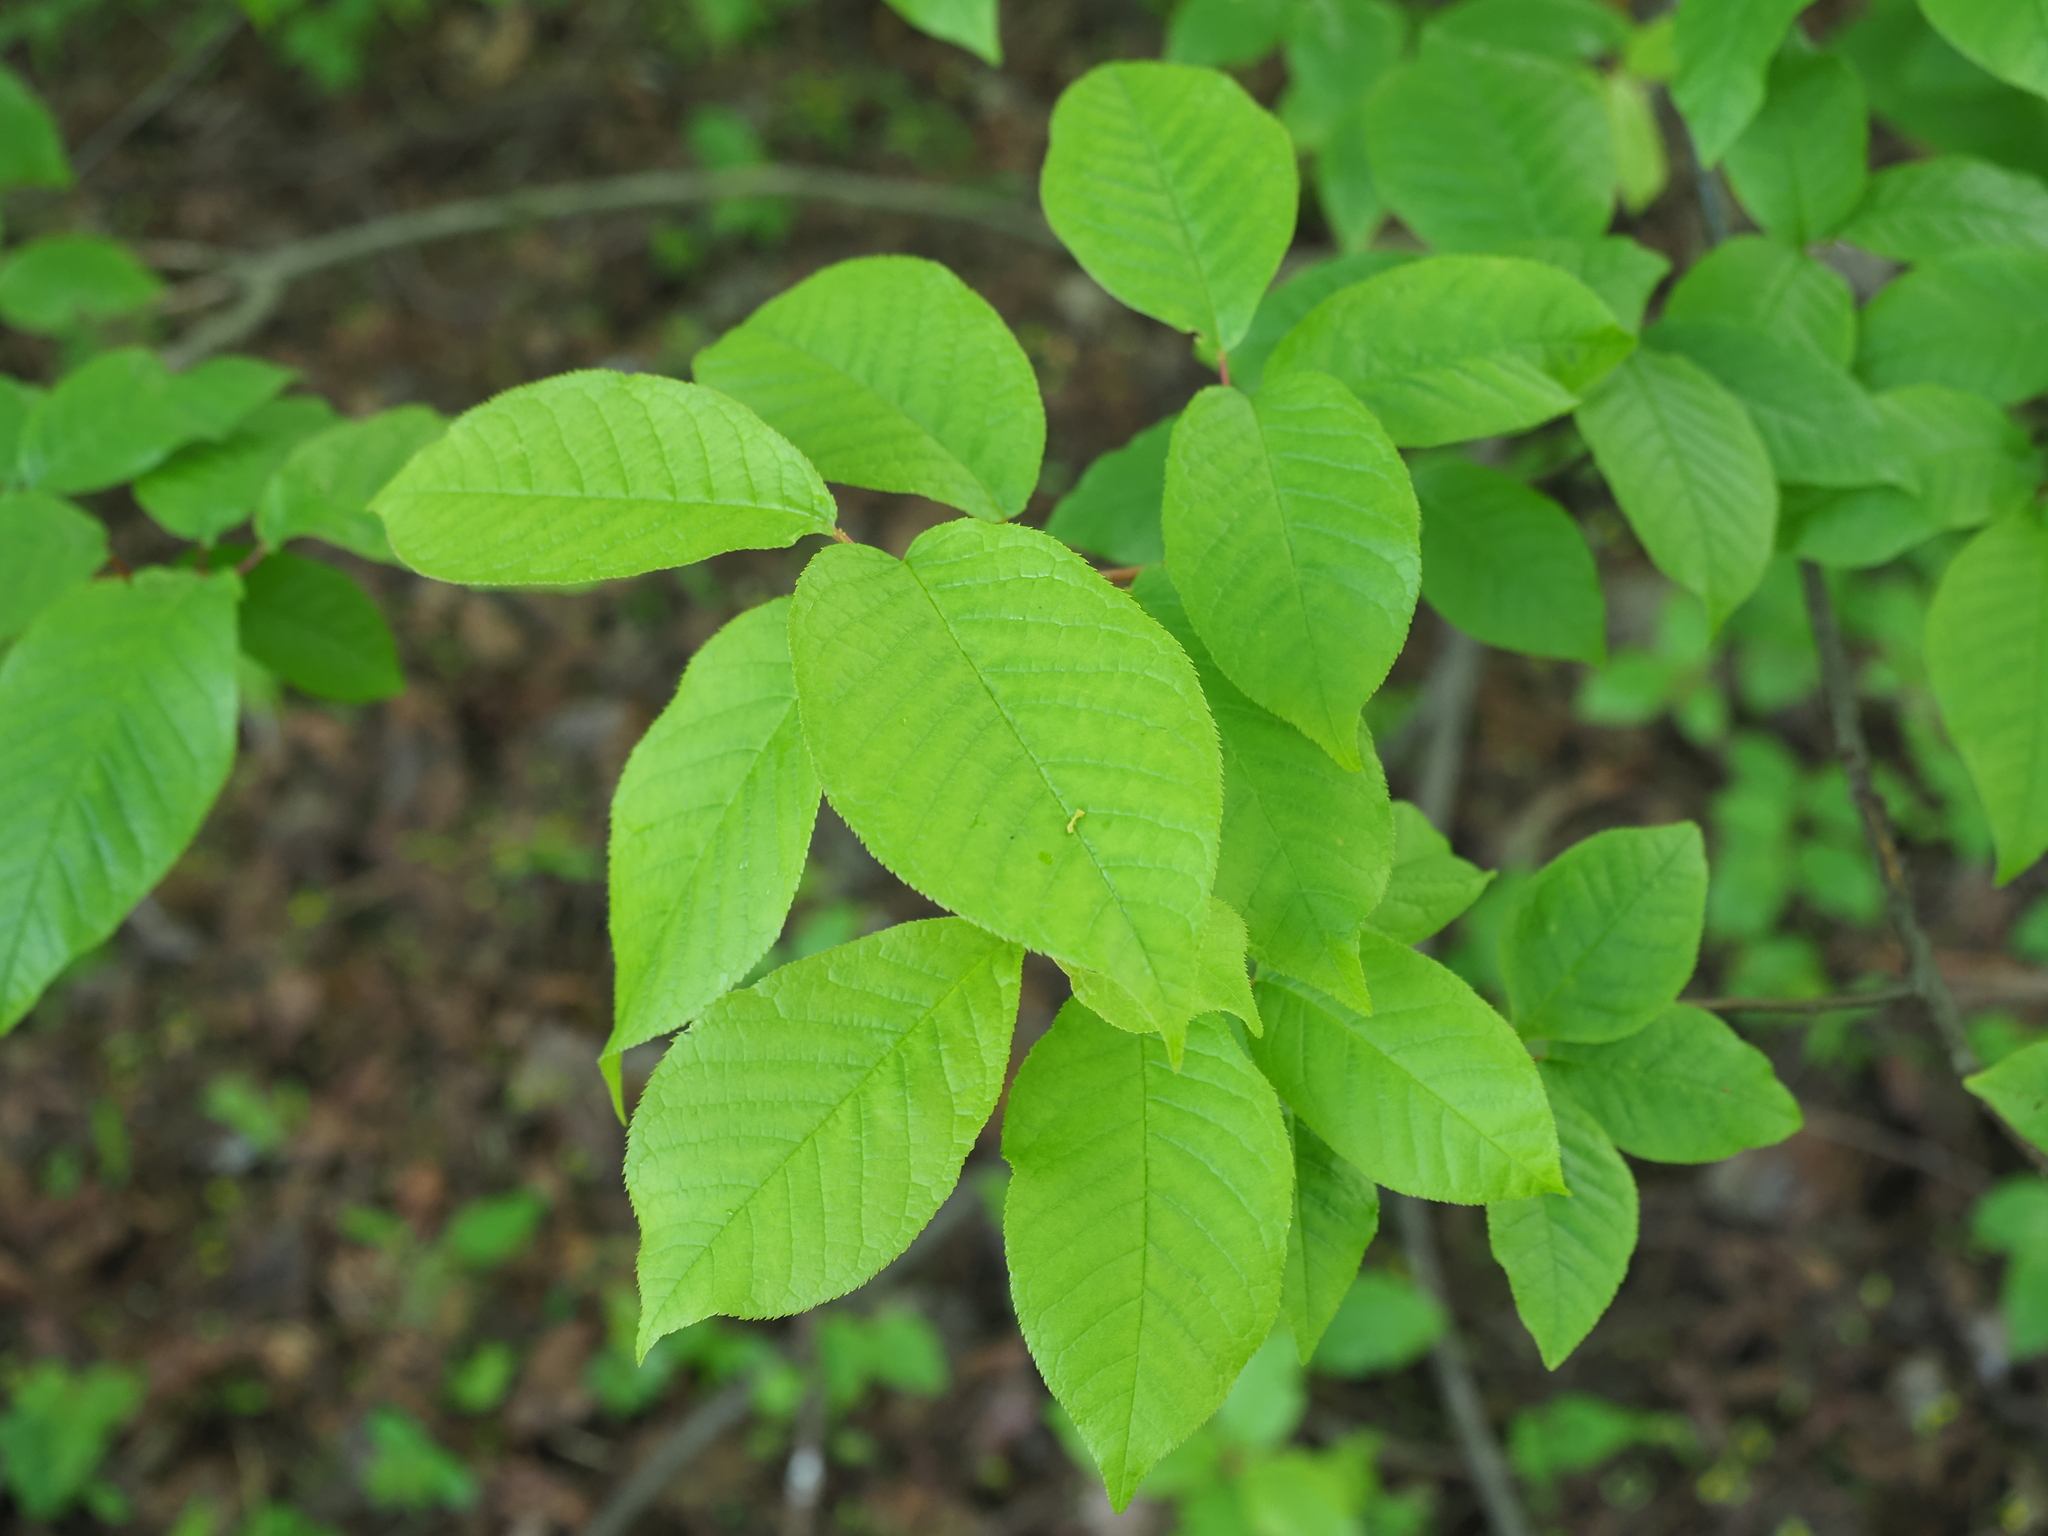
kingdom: Plantae
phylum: Tracheophyta
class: Magnoliopsida
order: Rosales
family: Rosaceae
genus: Prunus
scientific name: Prunus padus
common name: Bird cherry
